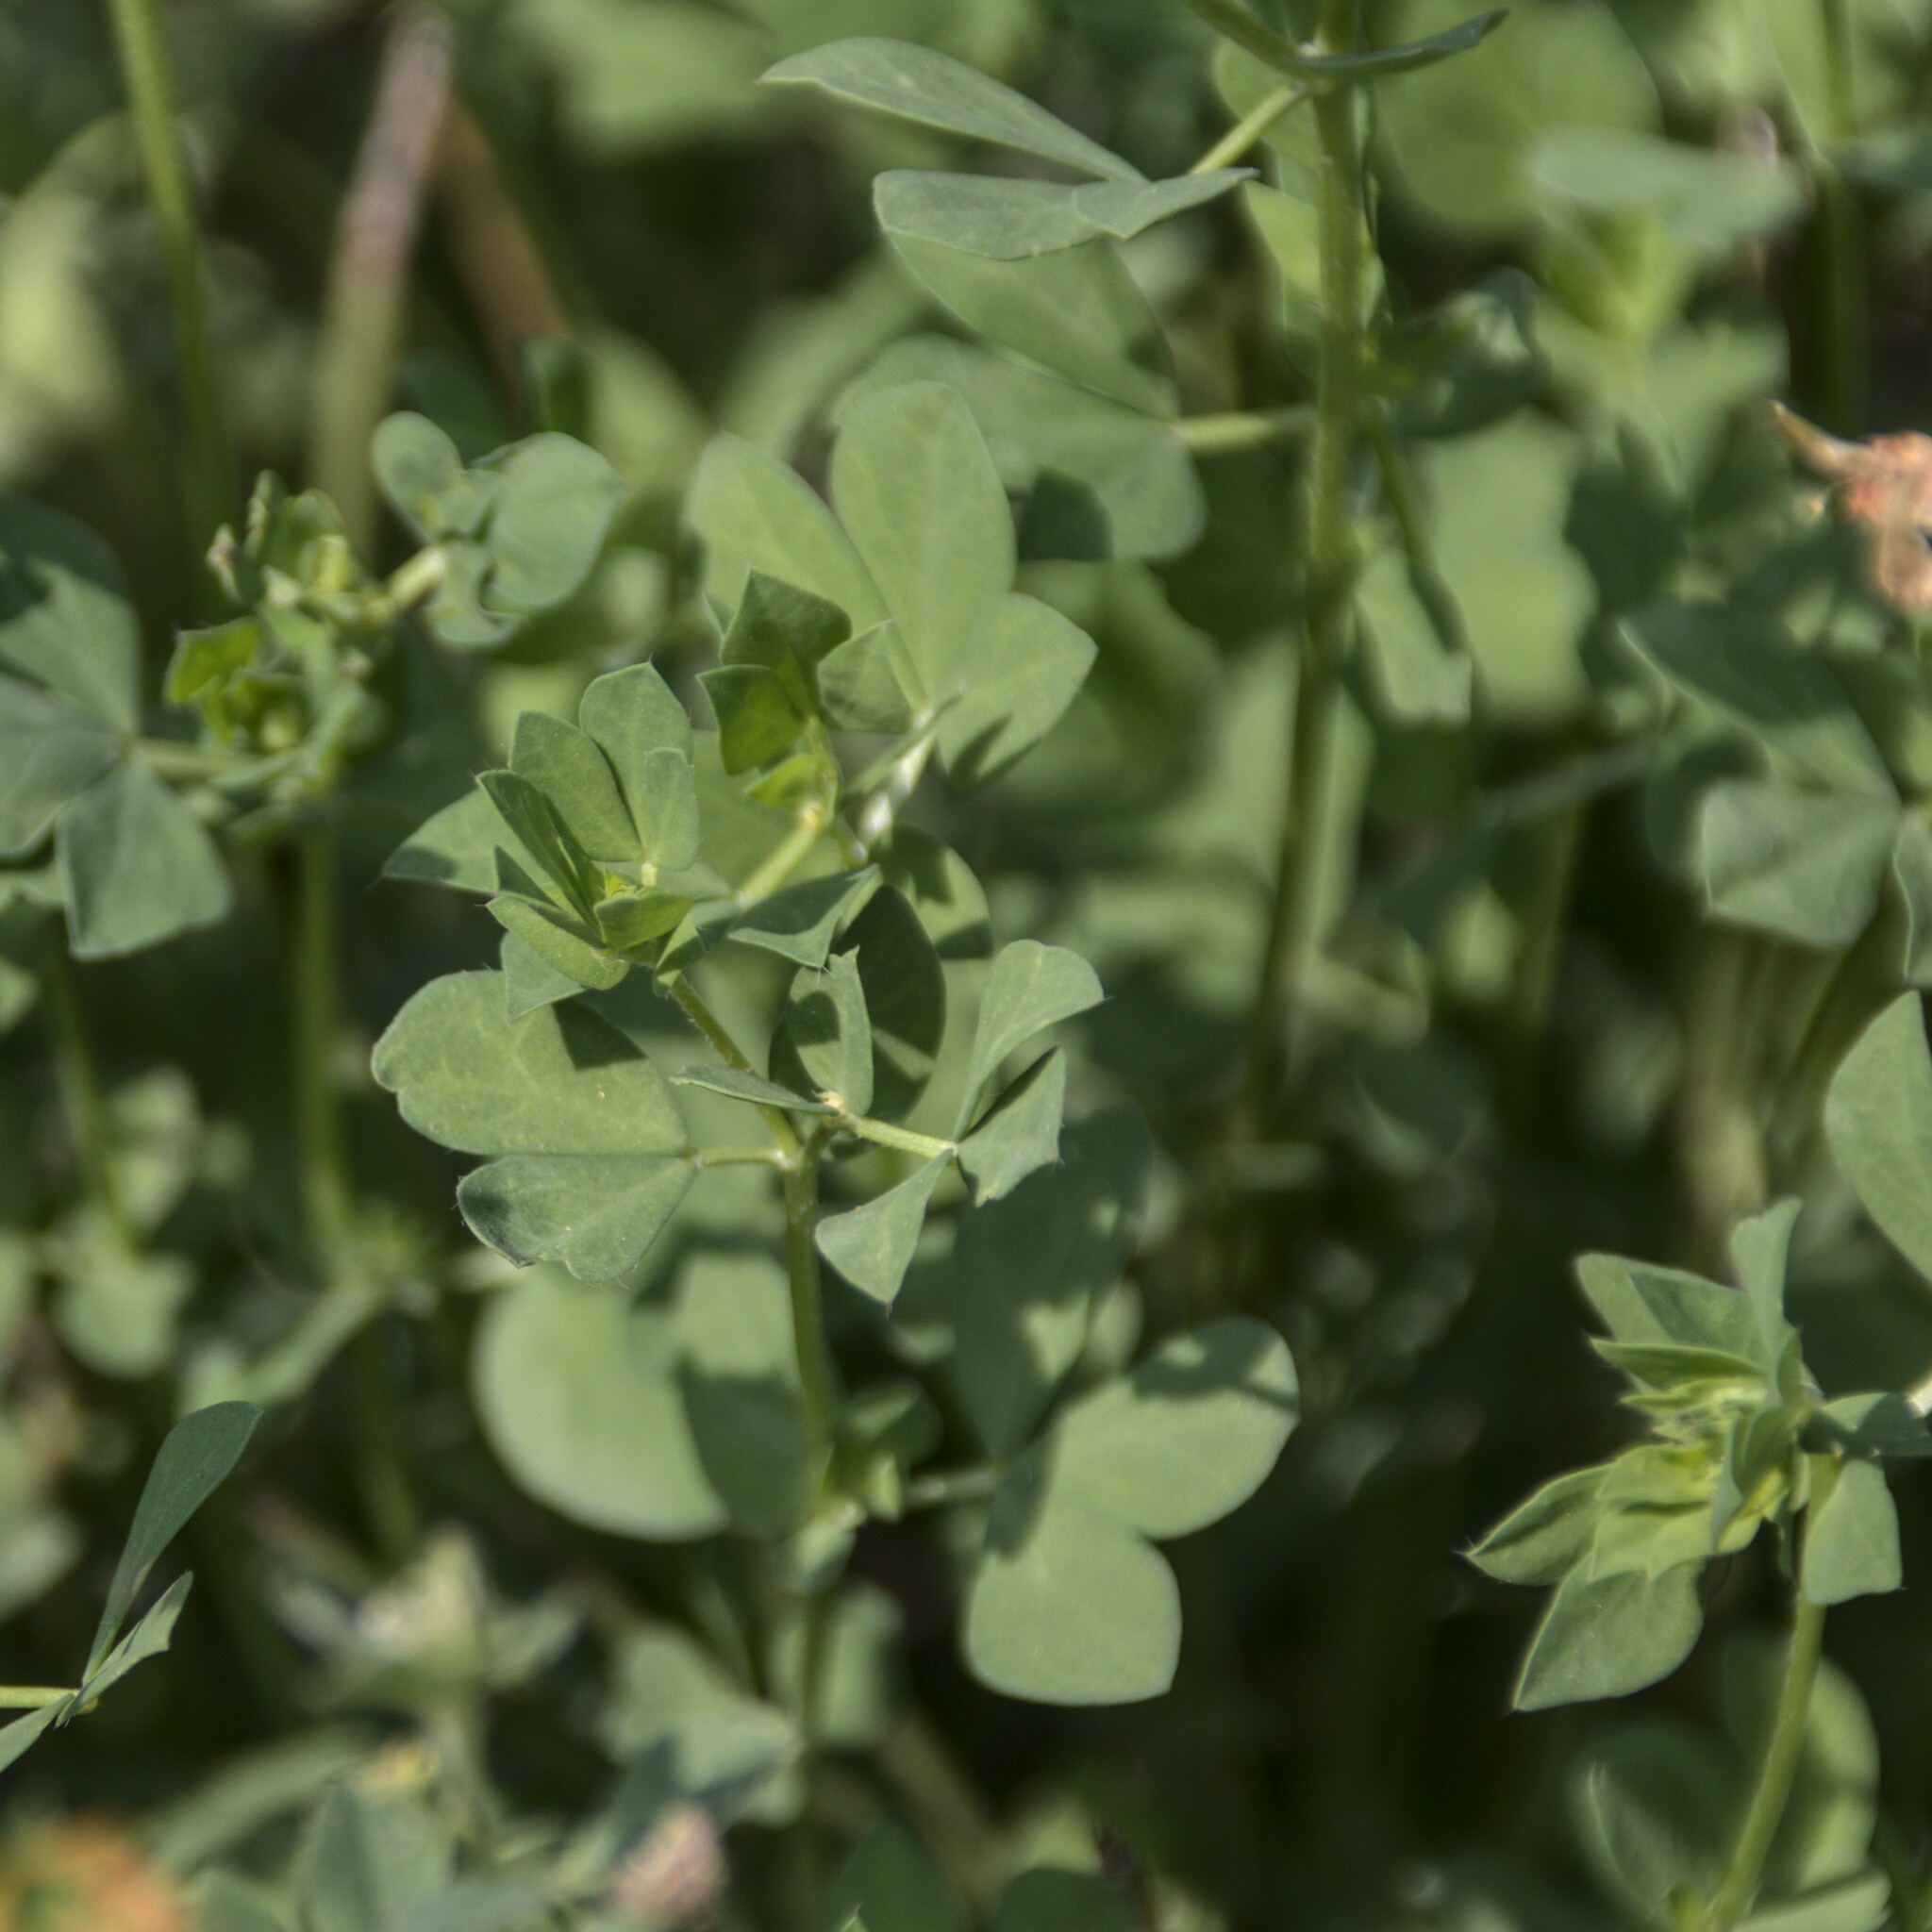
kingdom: Plantae
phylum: Tracheophyta
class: Magnoliopsida
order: Fabales
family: Fabaceae
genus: Lotus
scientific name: Lotus corniculatus
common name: Common bird's-foot-trefoil
